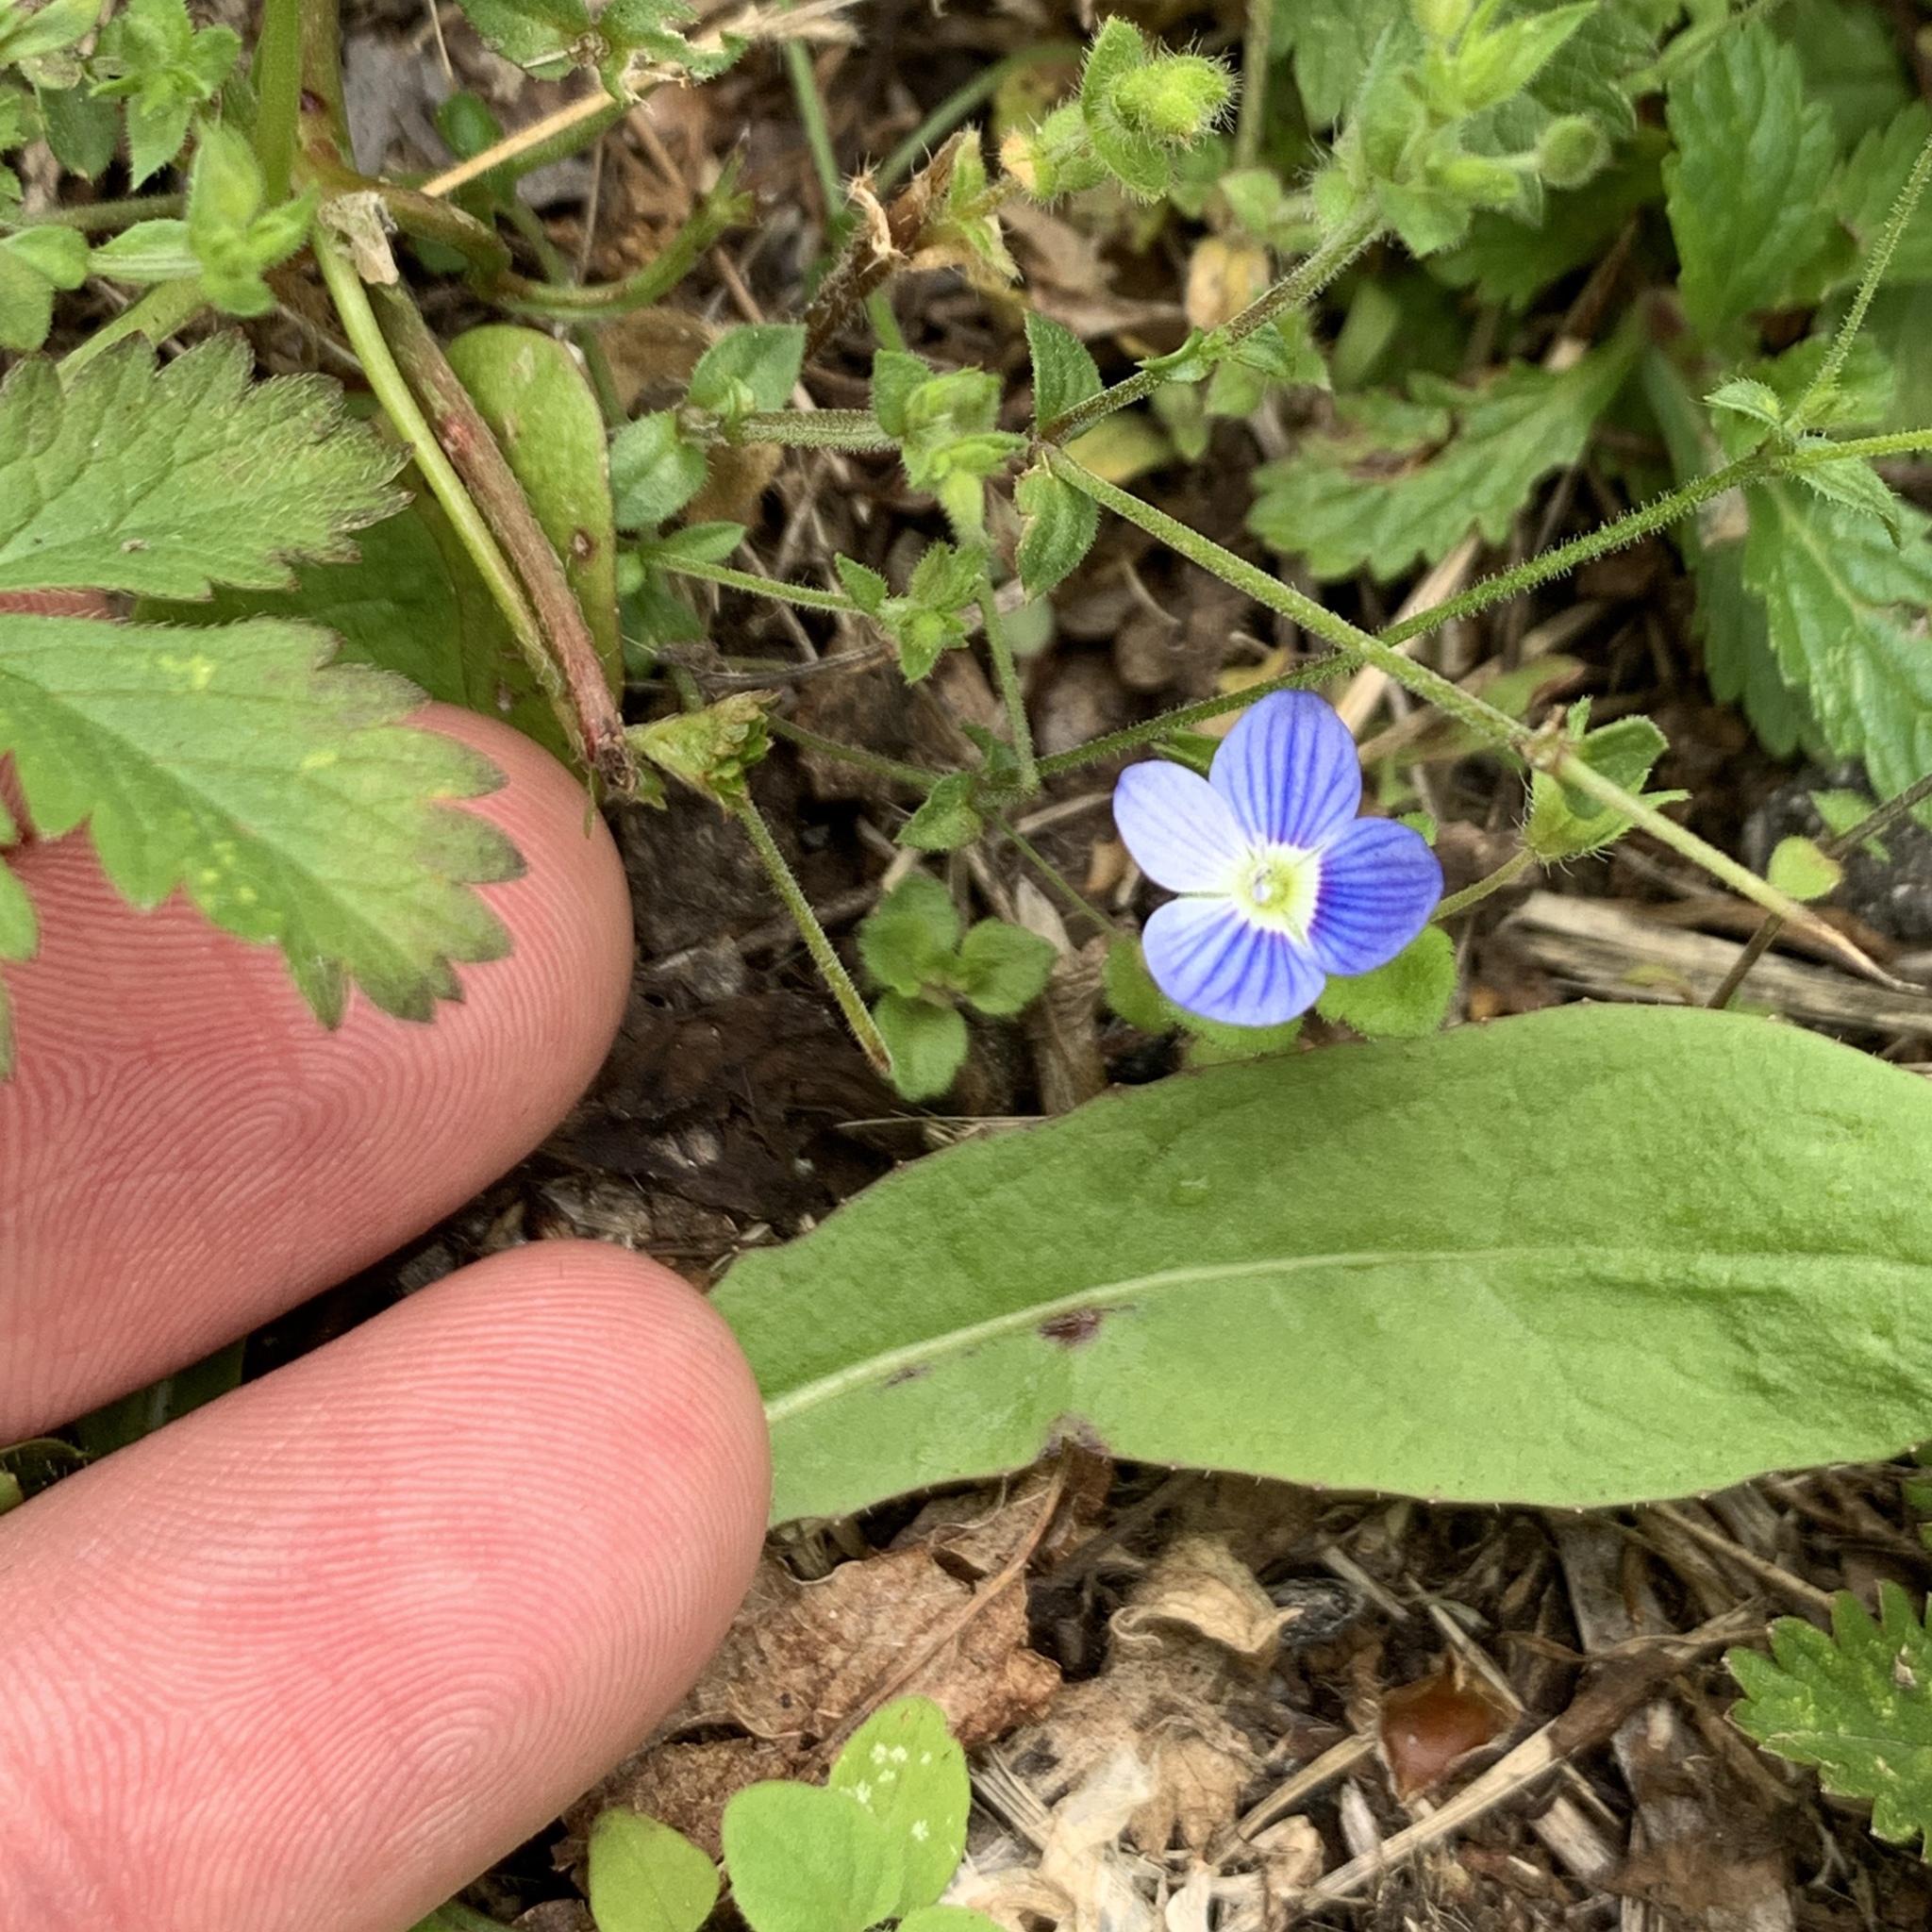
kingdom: Plantae
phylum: Tracheophyta
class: Magnoliopsida
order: Lamiales
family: Plantaginaceae
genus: Veronica
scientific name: Veronica persica
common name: Common field-speedwell
